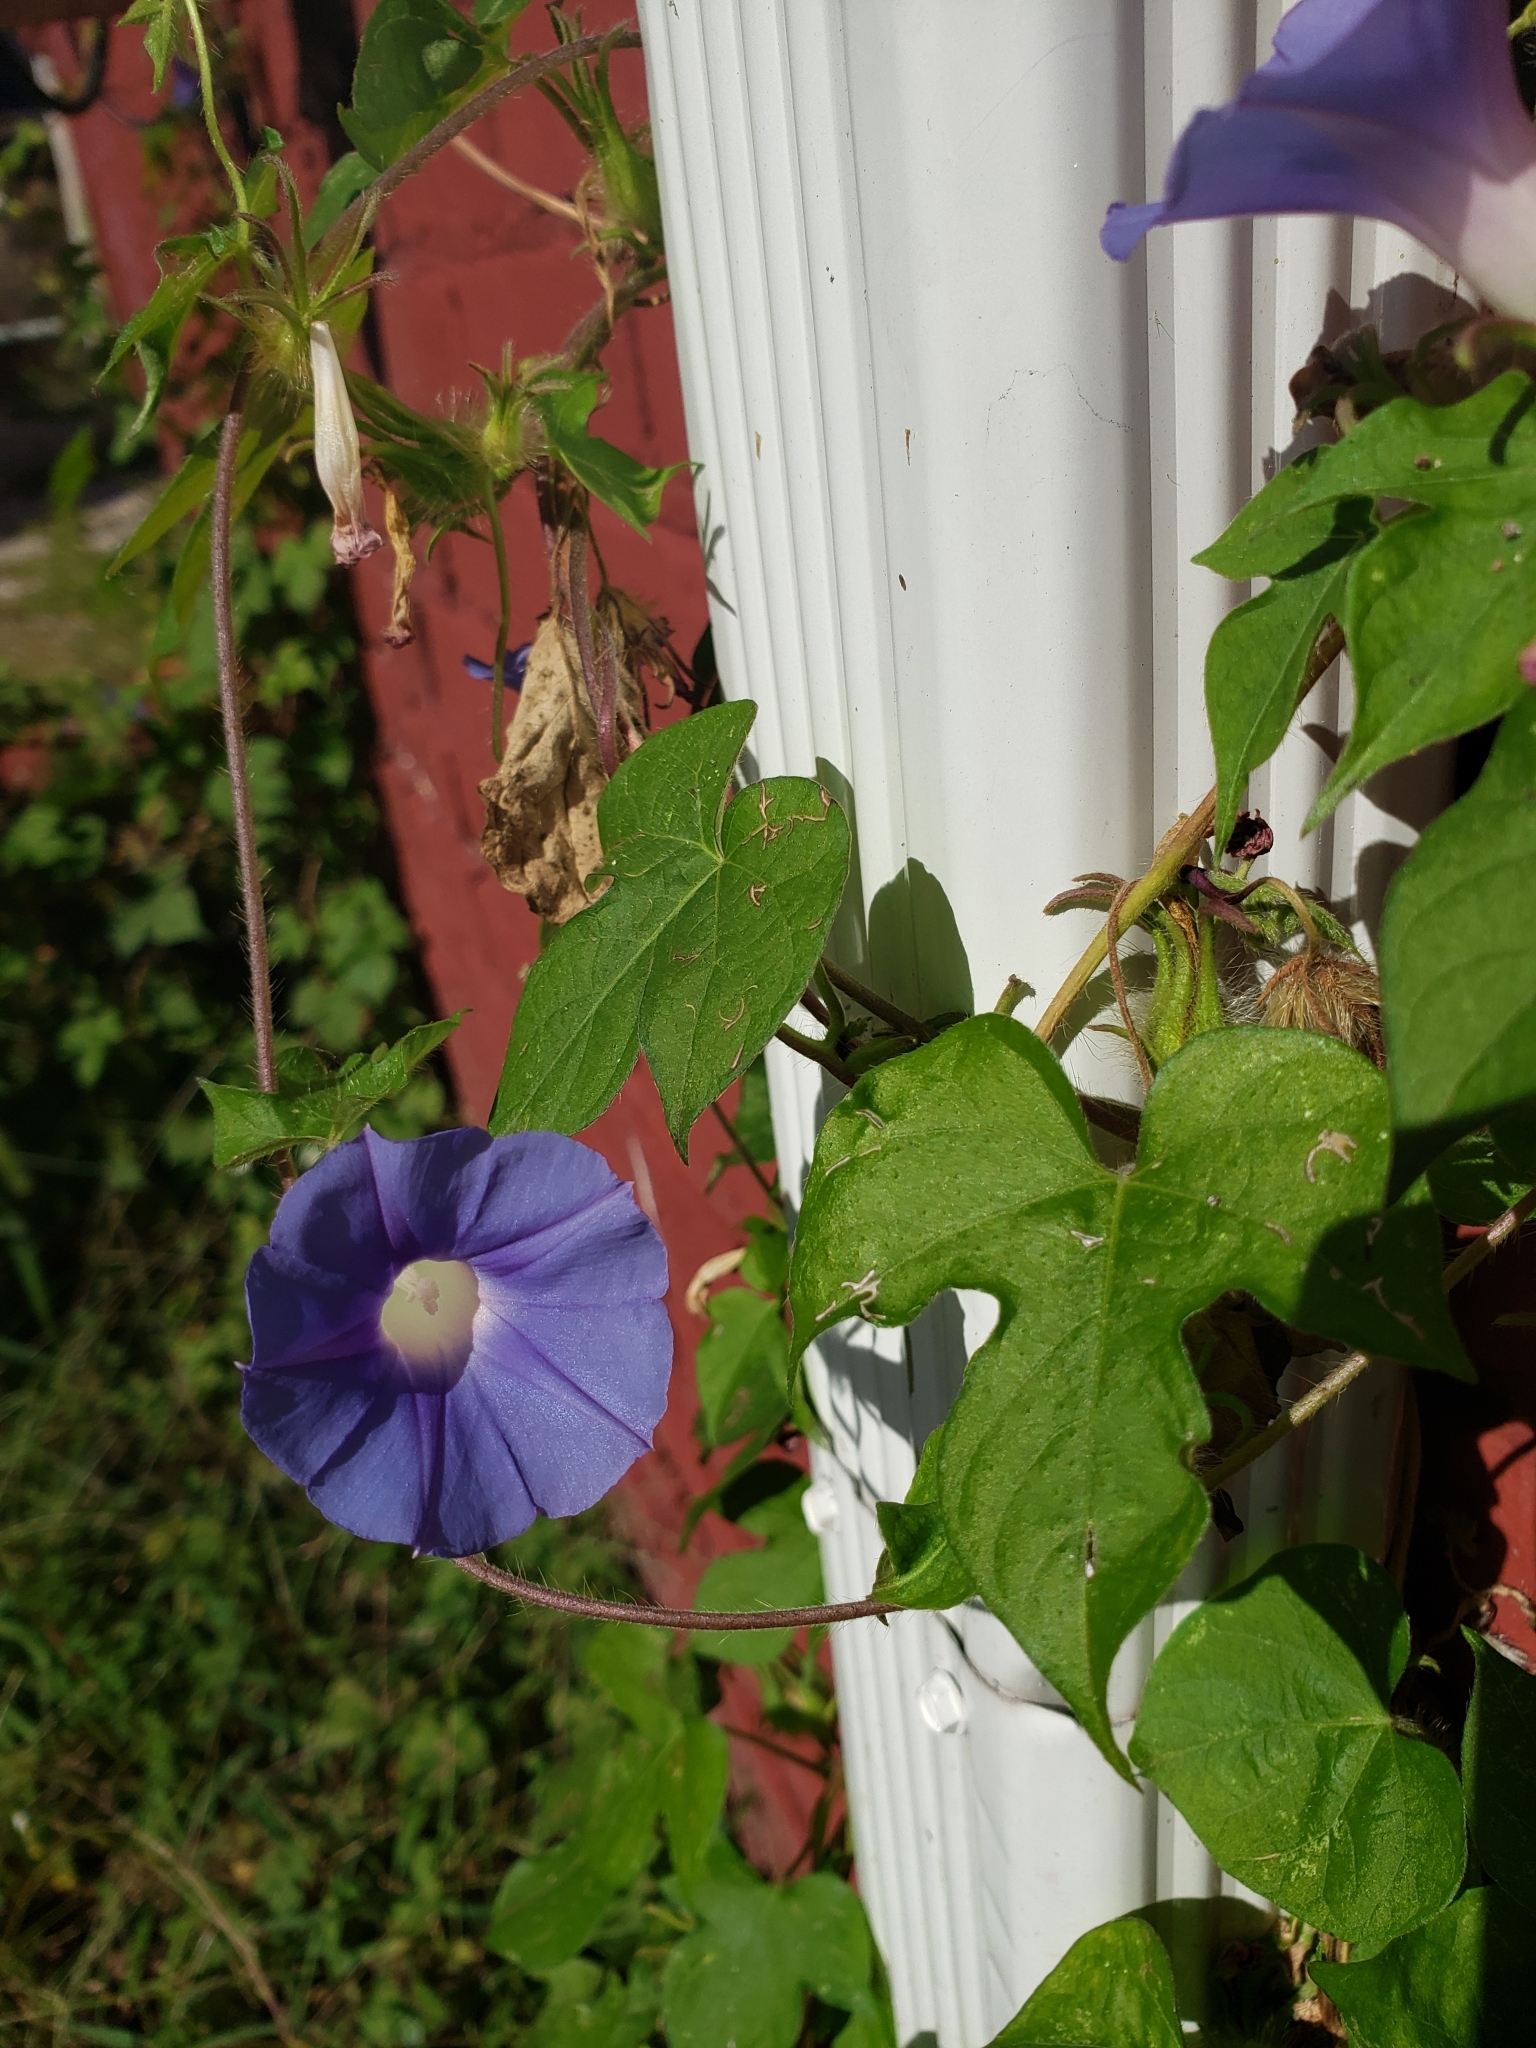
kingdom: Plantae
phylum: Tracheophyta
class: Magnoliopsida
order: Solanales
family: Convolvulaceae
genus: Ipomoea
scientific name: Ipomoea hederacea
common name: Ivy-leaved morning-glory
